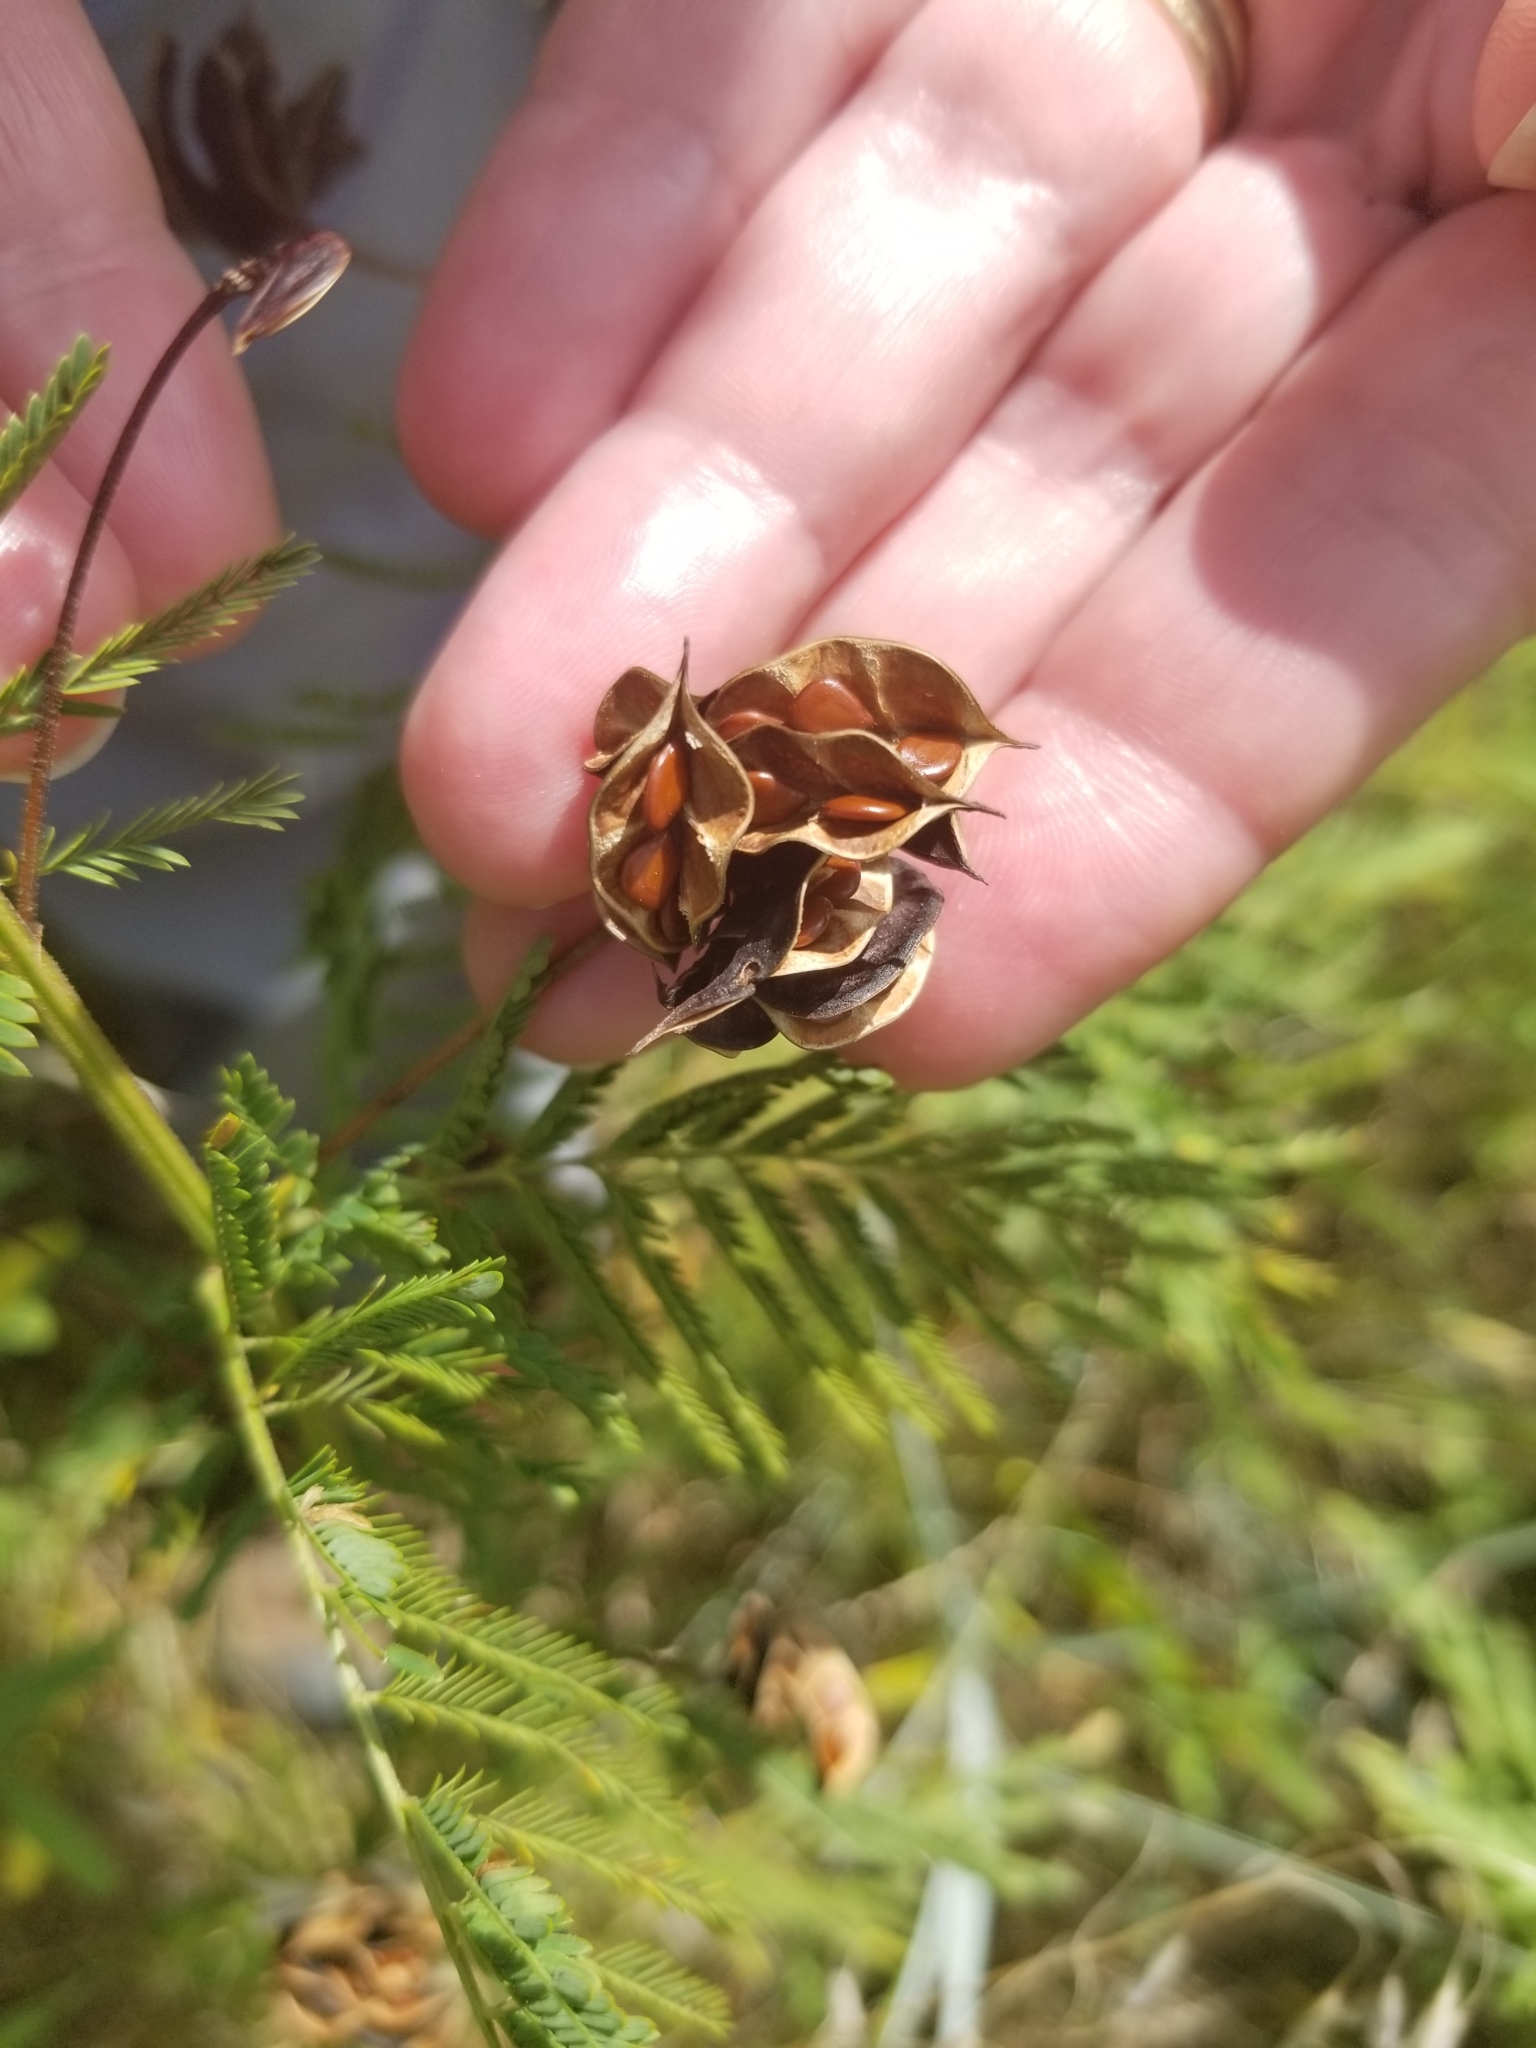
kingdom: Plantae
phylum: Tracheophyta
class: Magnoliopsida
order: Fabales
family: Fabaceae
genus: Desmanthus
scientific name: Desmanthus illinoensis
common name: Illinois bundle-flower
